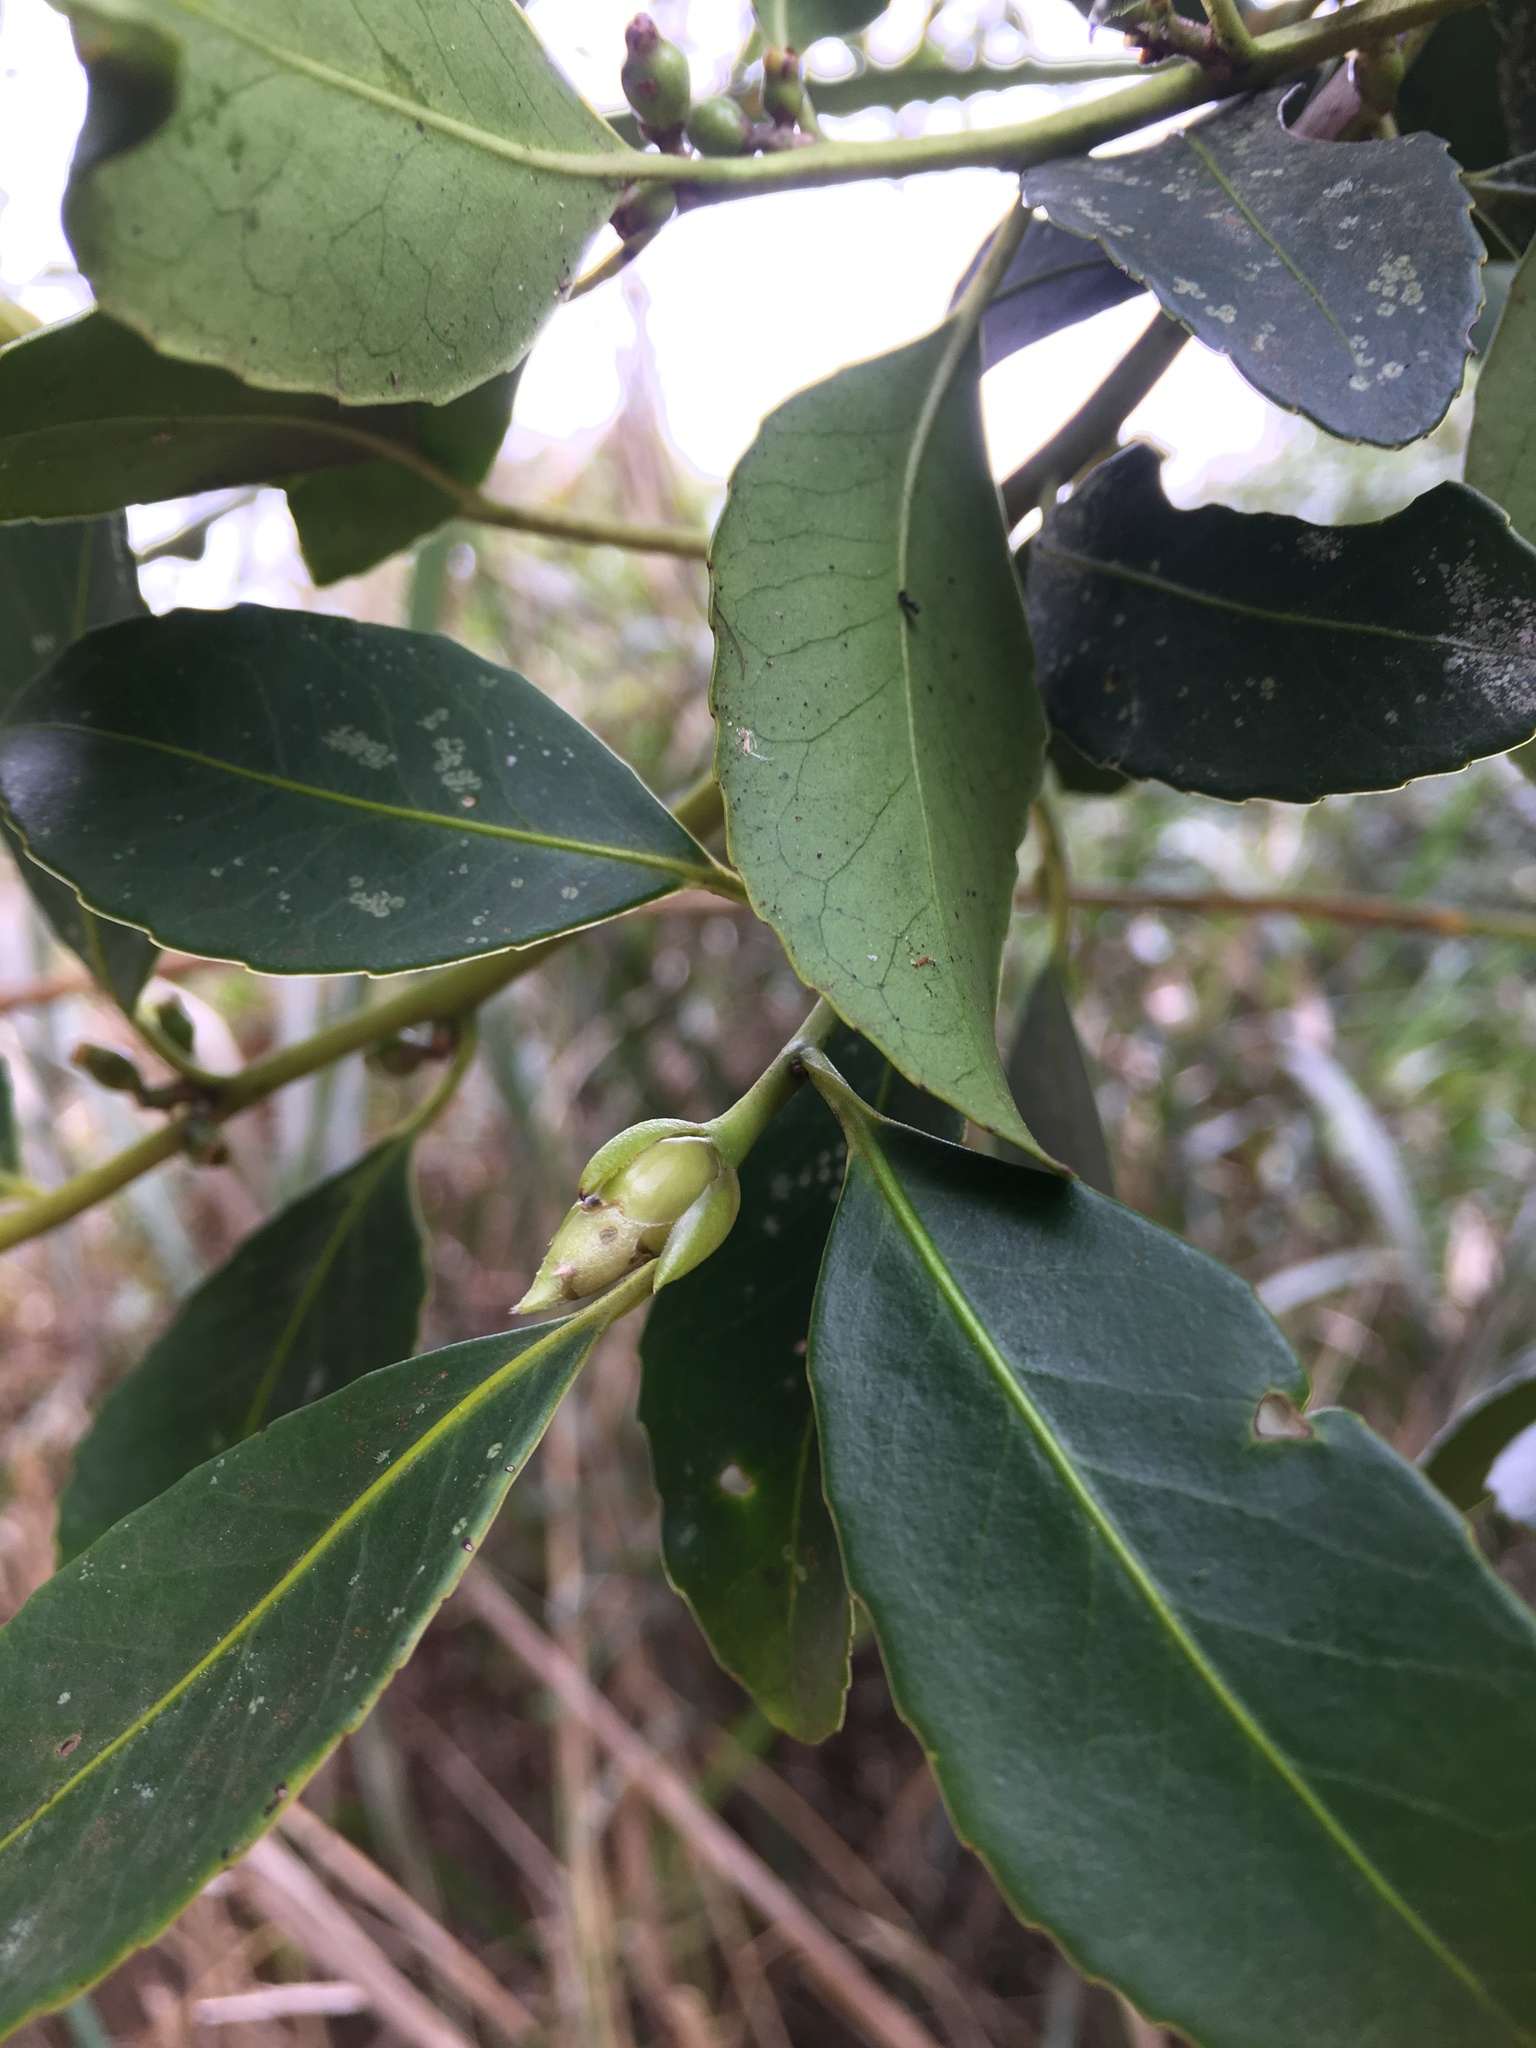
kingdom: Plantae
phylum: Tracheophyta
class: Magnoliopsida
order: Ericales
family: Symplocaceae
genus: Symplocos
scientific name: Symplocos setchuensis
